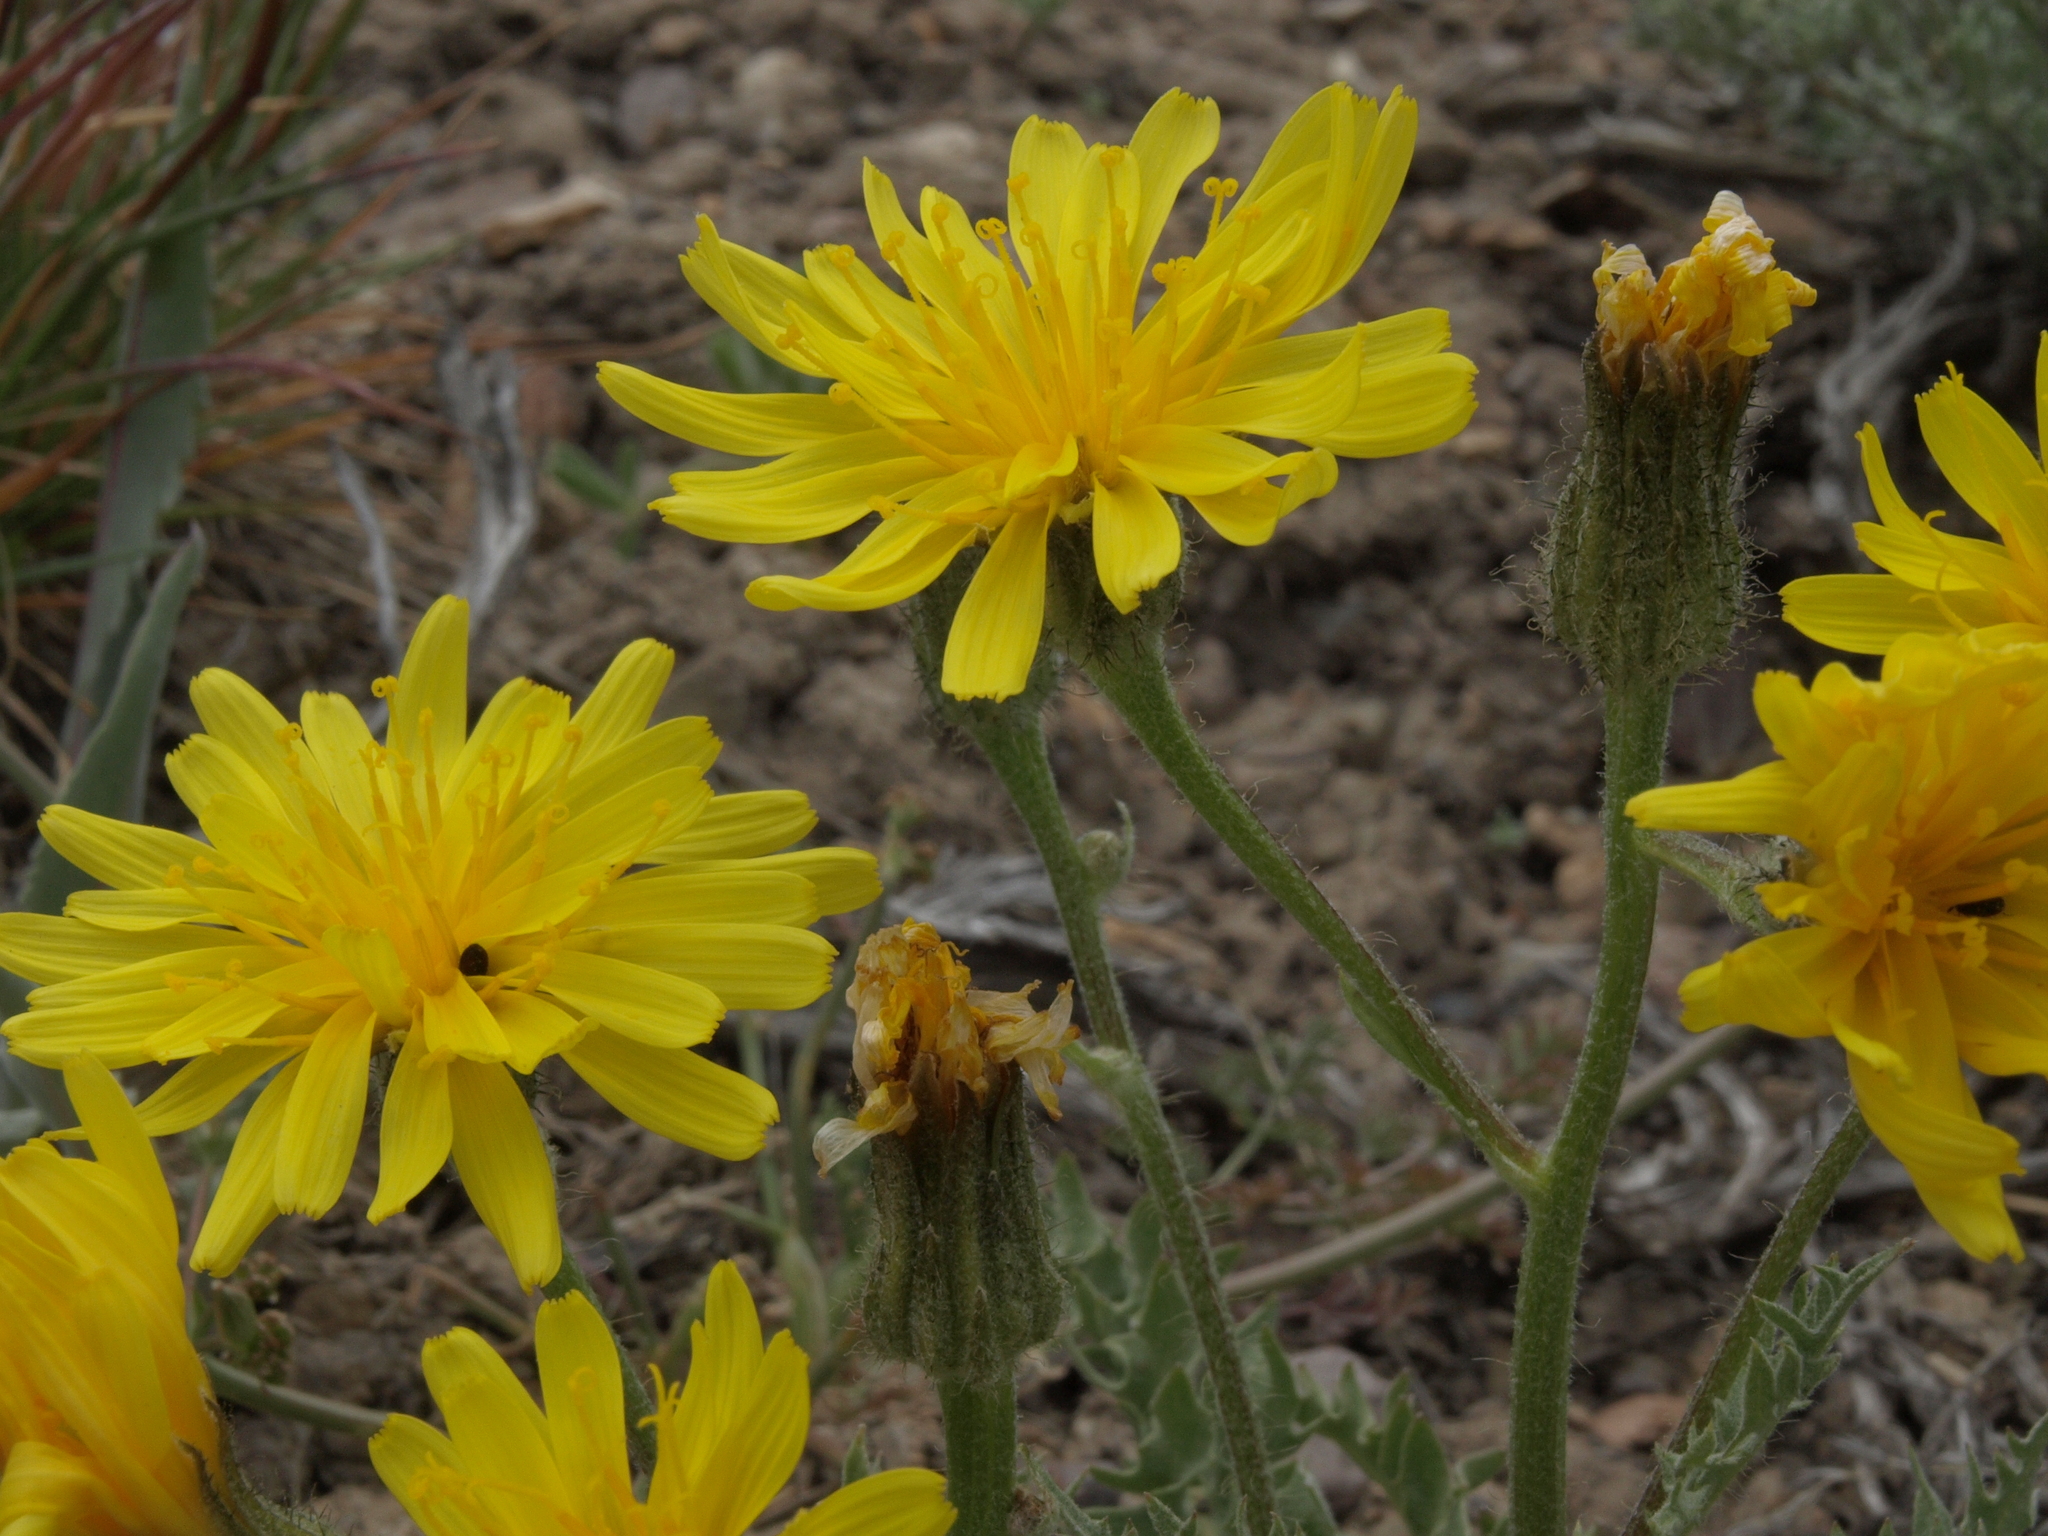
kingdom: Plantae
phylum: Tracheophyta
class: Magnoliopsida
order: Asterales
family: Asteraceae
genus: Crepis
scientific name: Crepis occidentalis
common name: Gray hawk's-beard
